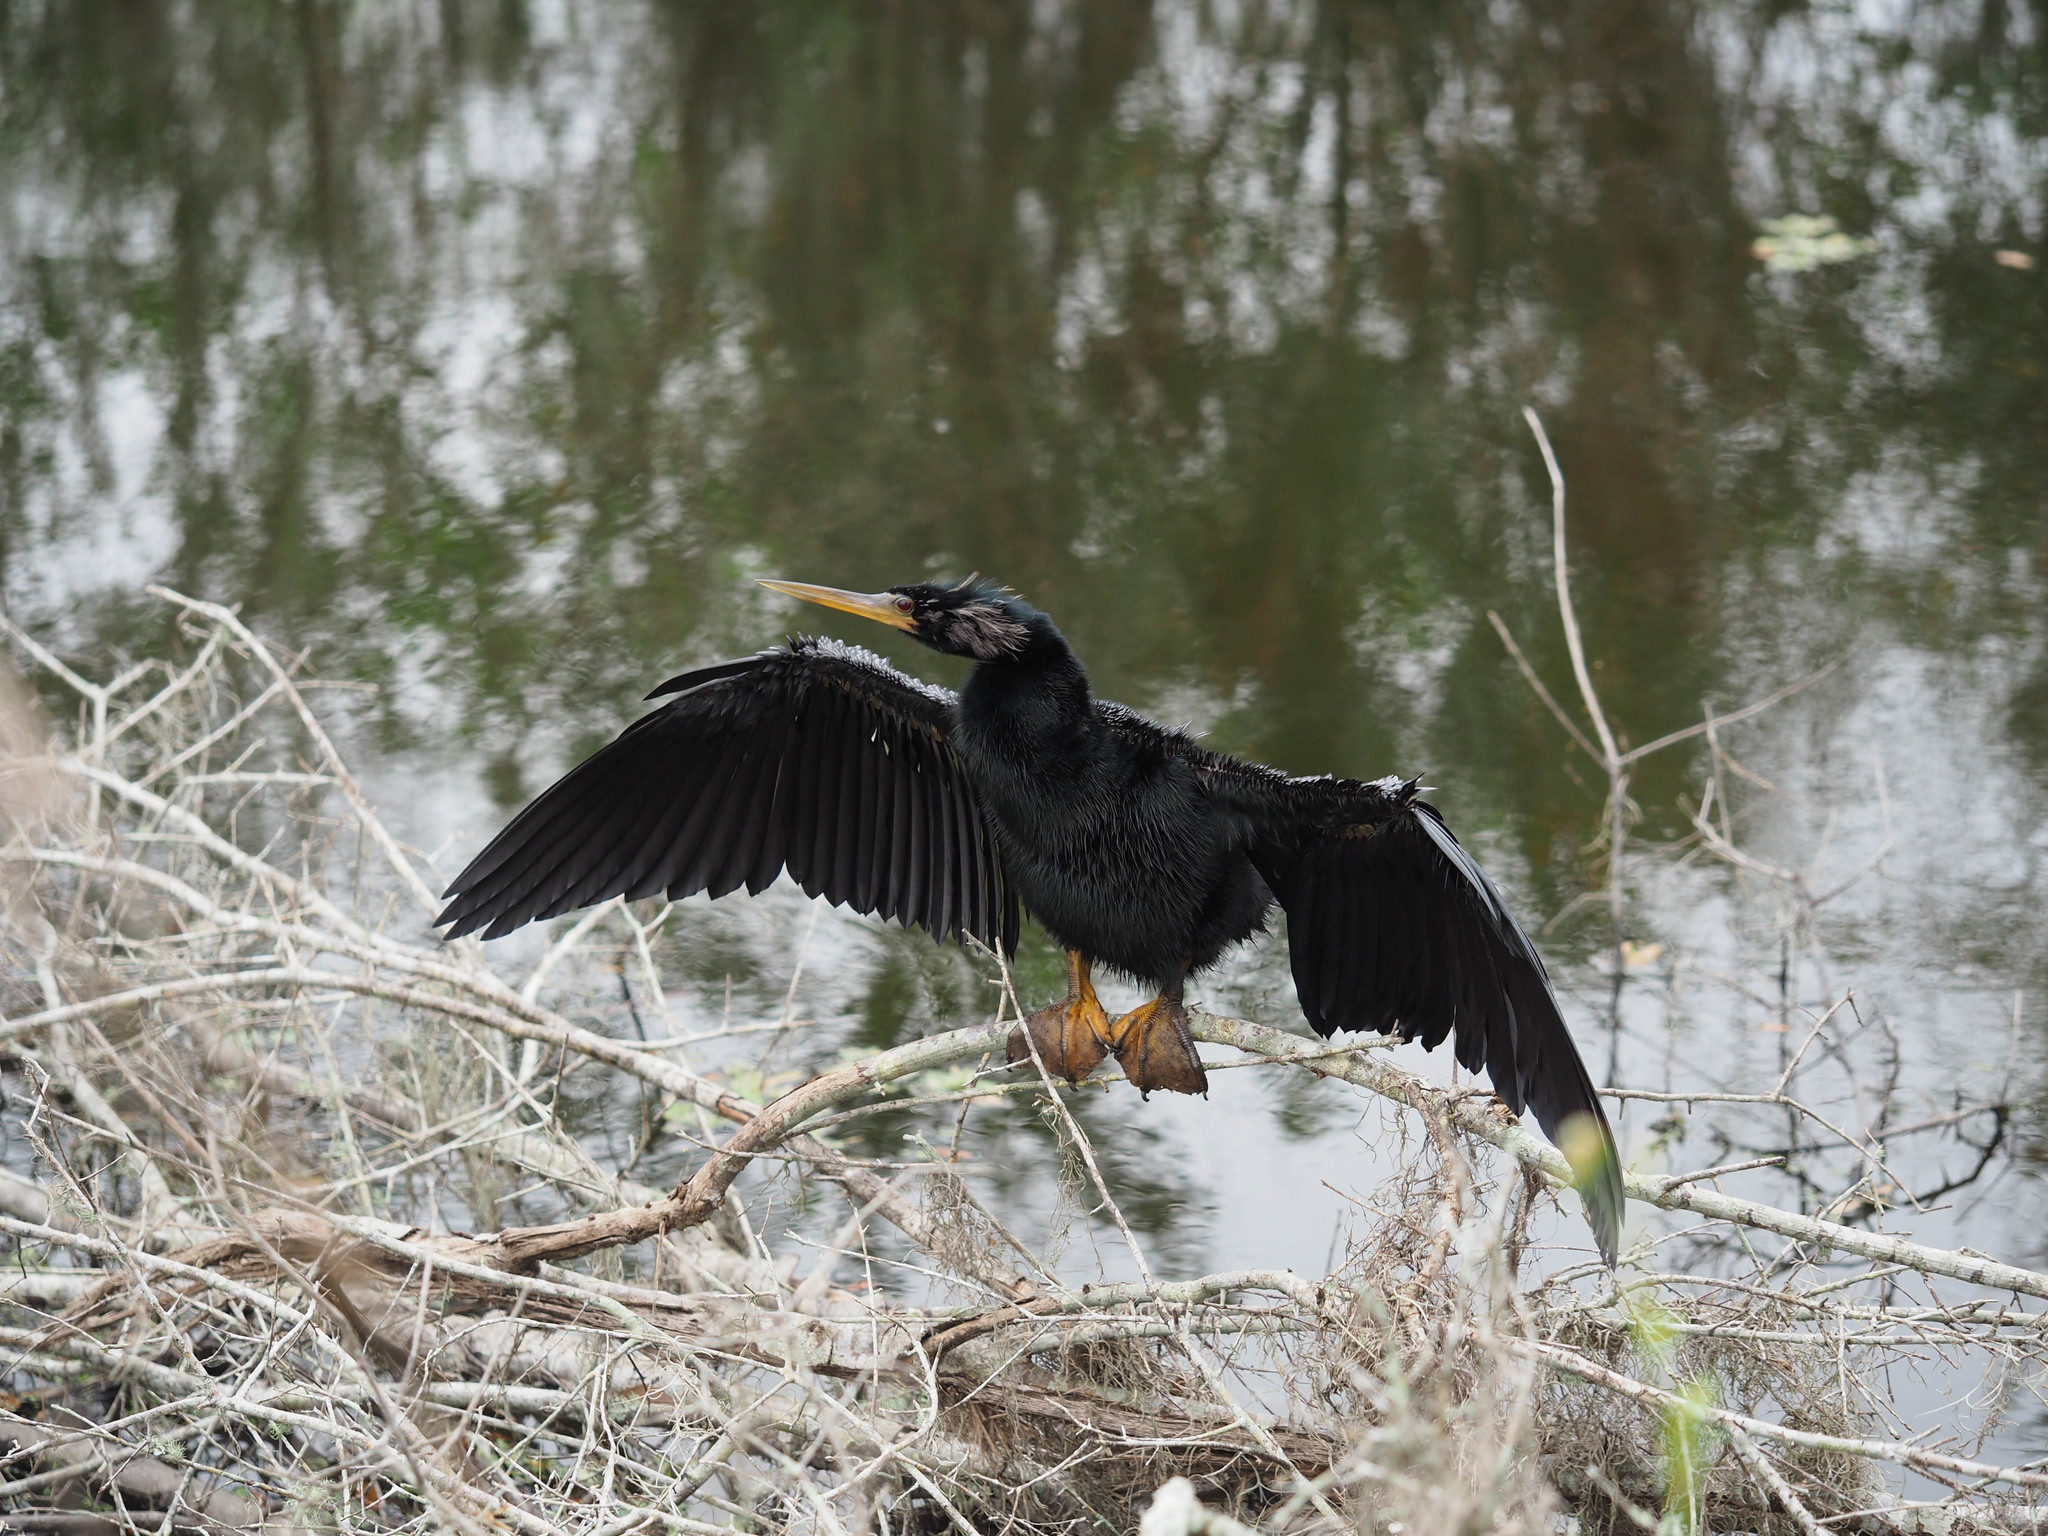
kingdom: Animalia
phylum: Chordata
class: Aves
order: Suliformes
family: Anhingidae
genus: Anhinga
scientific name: Anhinga anhinga
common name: Anhinga
